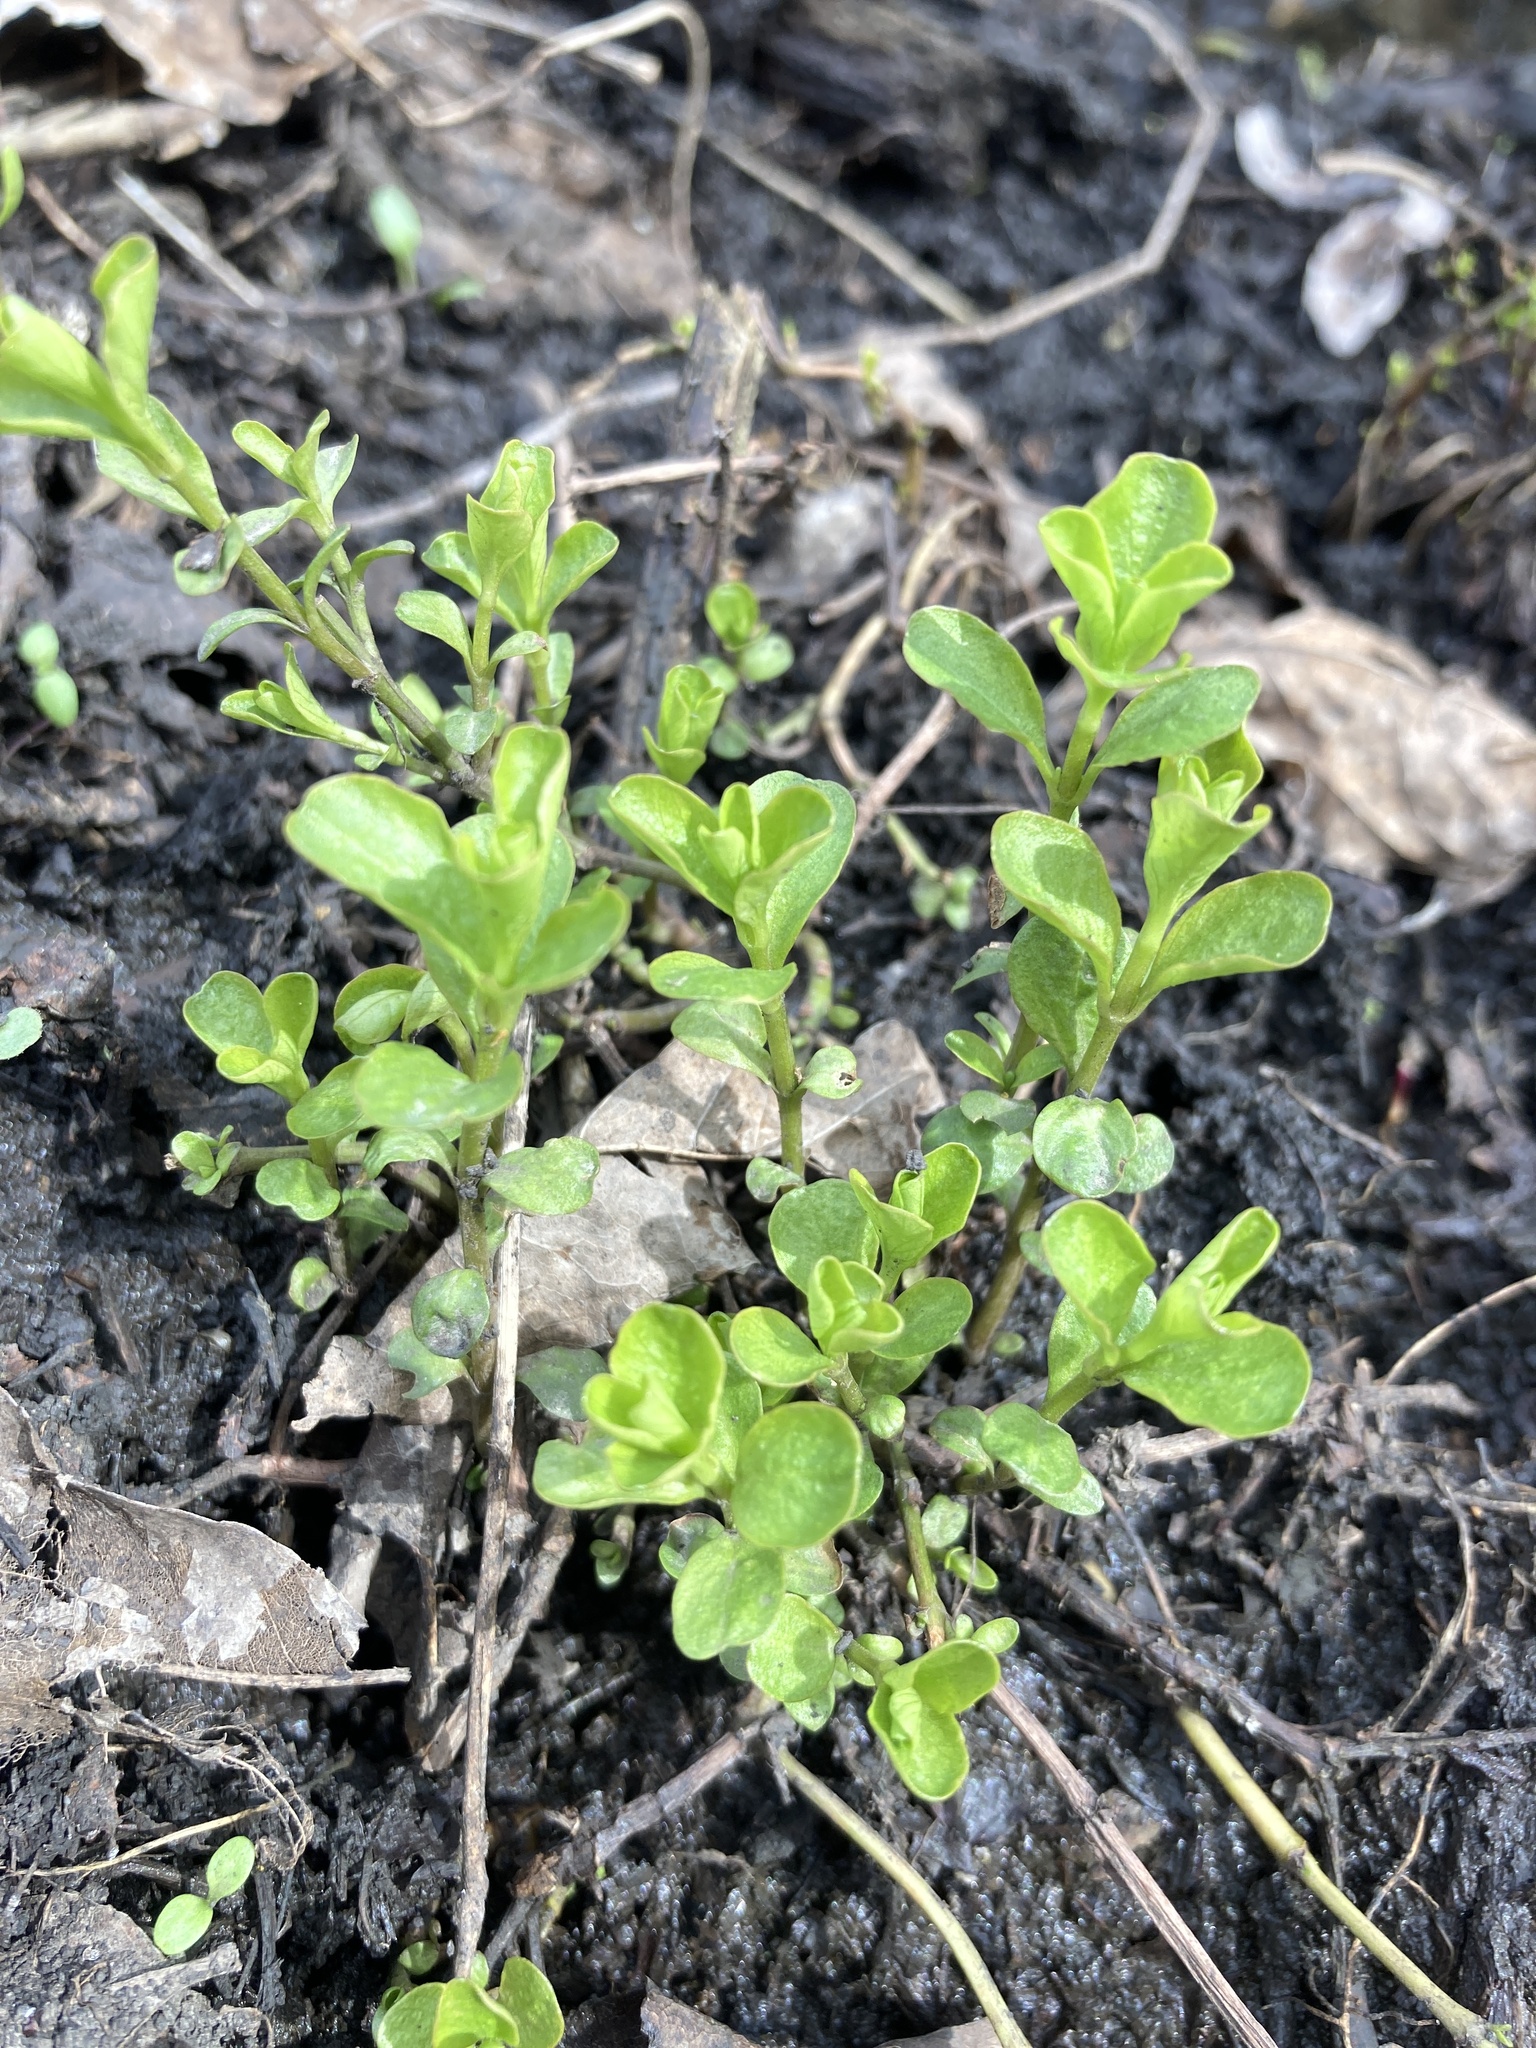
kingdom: Plantae
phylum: Tracheophyta
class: Magnoliopsida
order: Ericales
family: Primulaceae
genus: Lysimachia
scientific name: Lysimachia nummularia
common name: Moneywort
